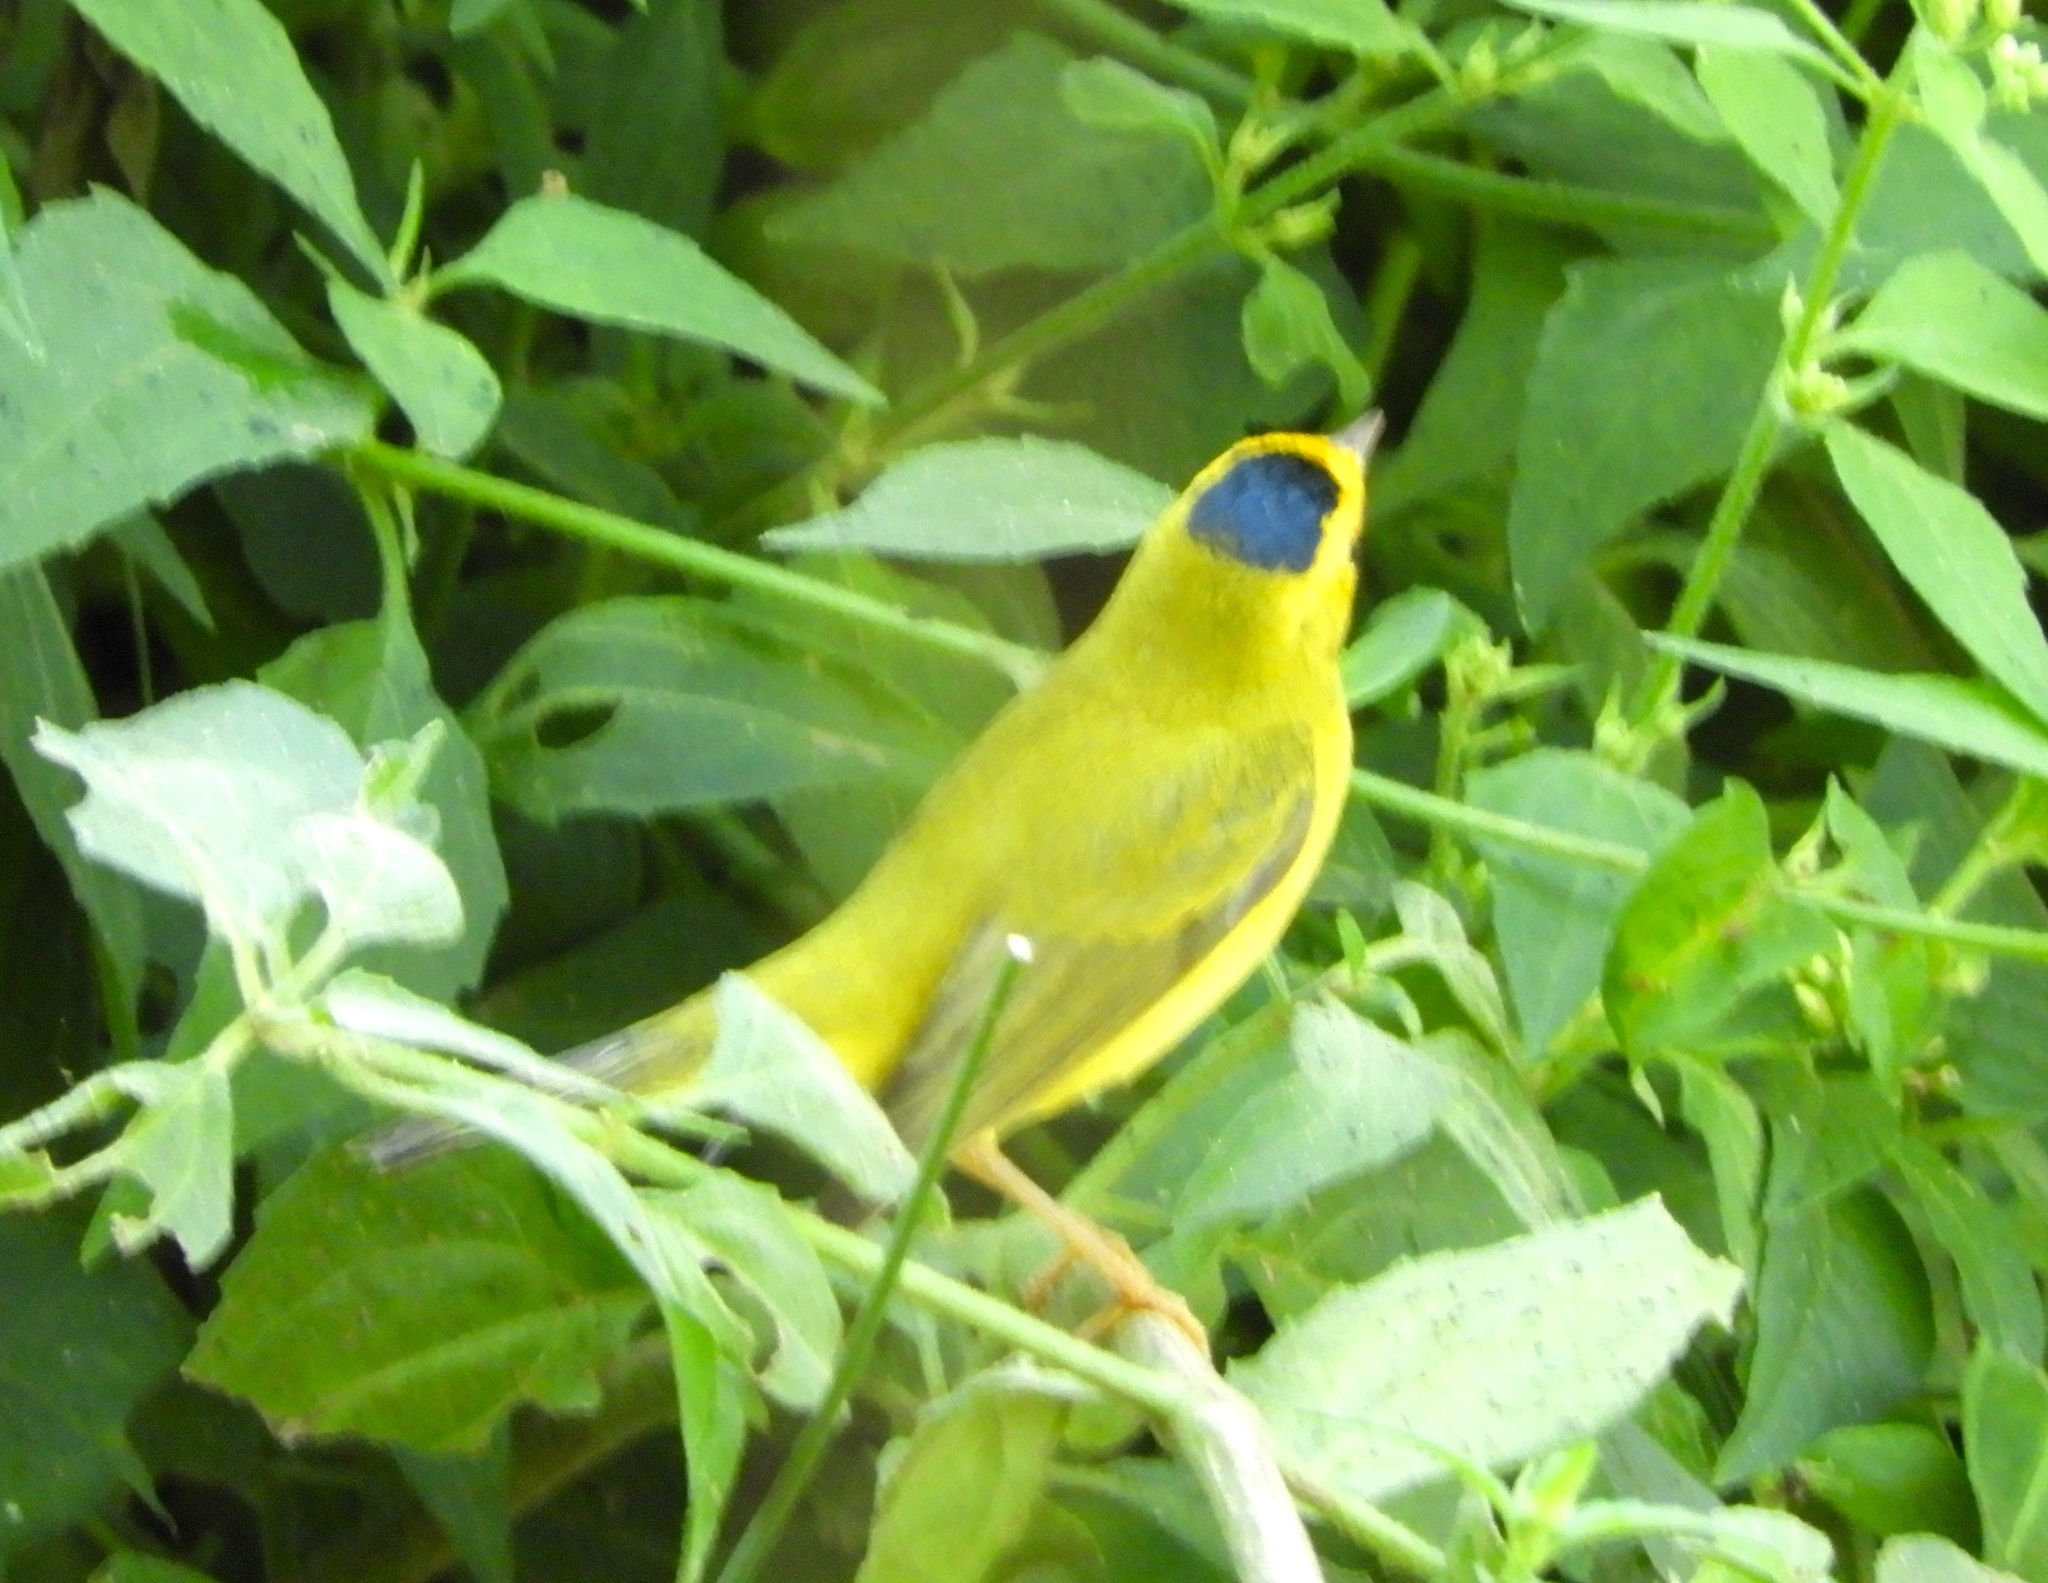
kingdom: Animalia
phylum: Chordata
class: Aves
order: Passeriformes
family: Parulidae
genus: Cardellina
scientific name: Cardellina pusilla
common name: Wilson's warbler
